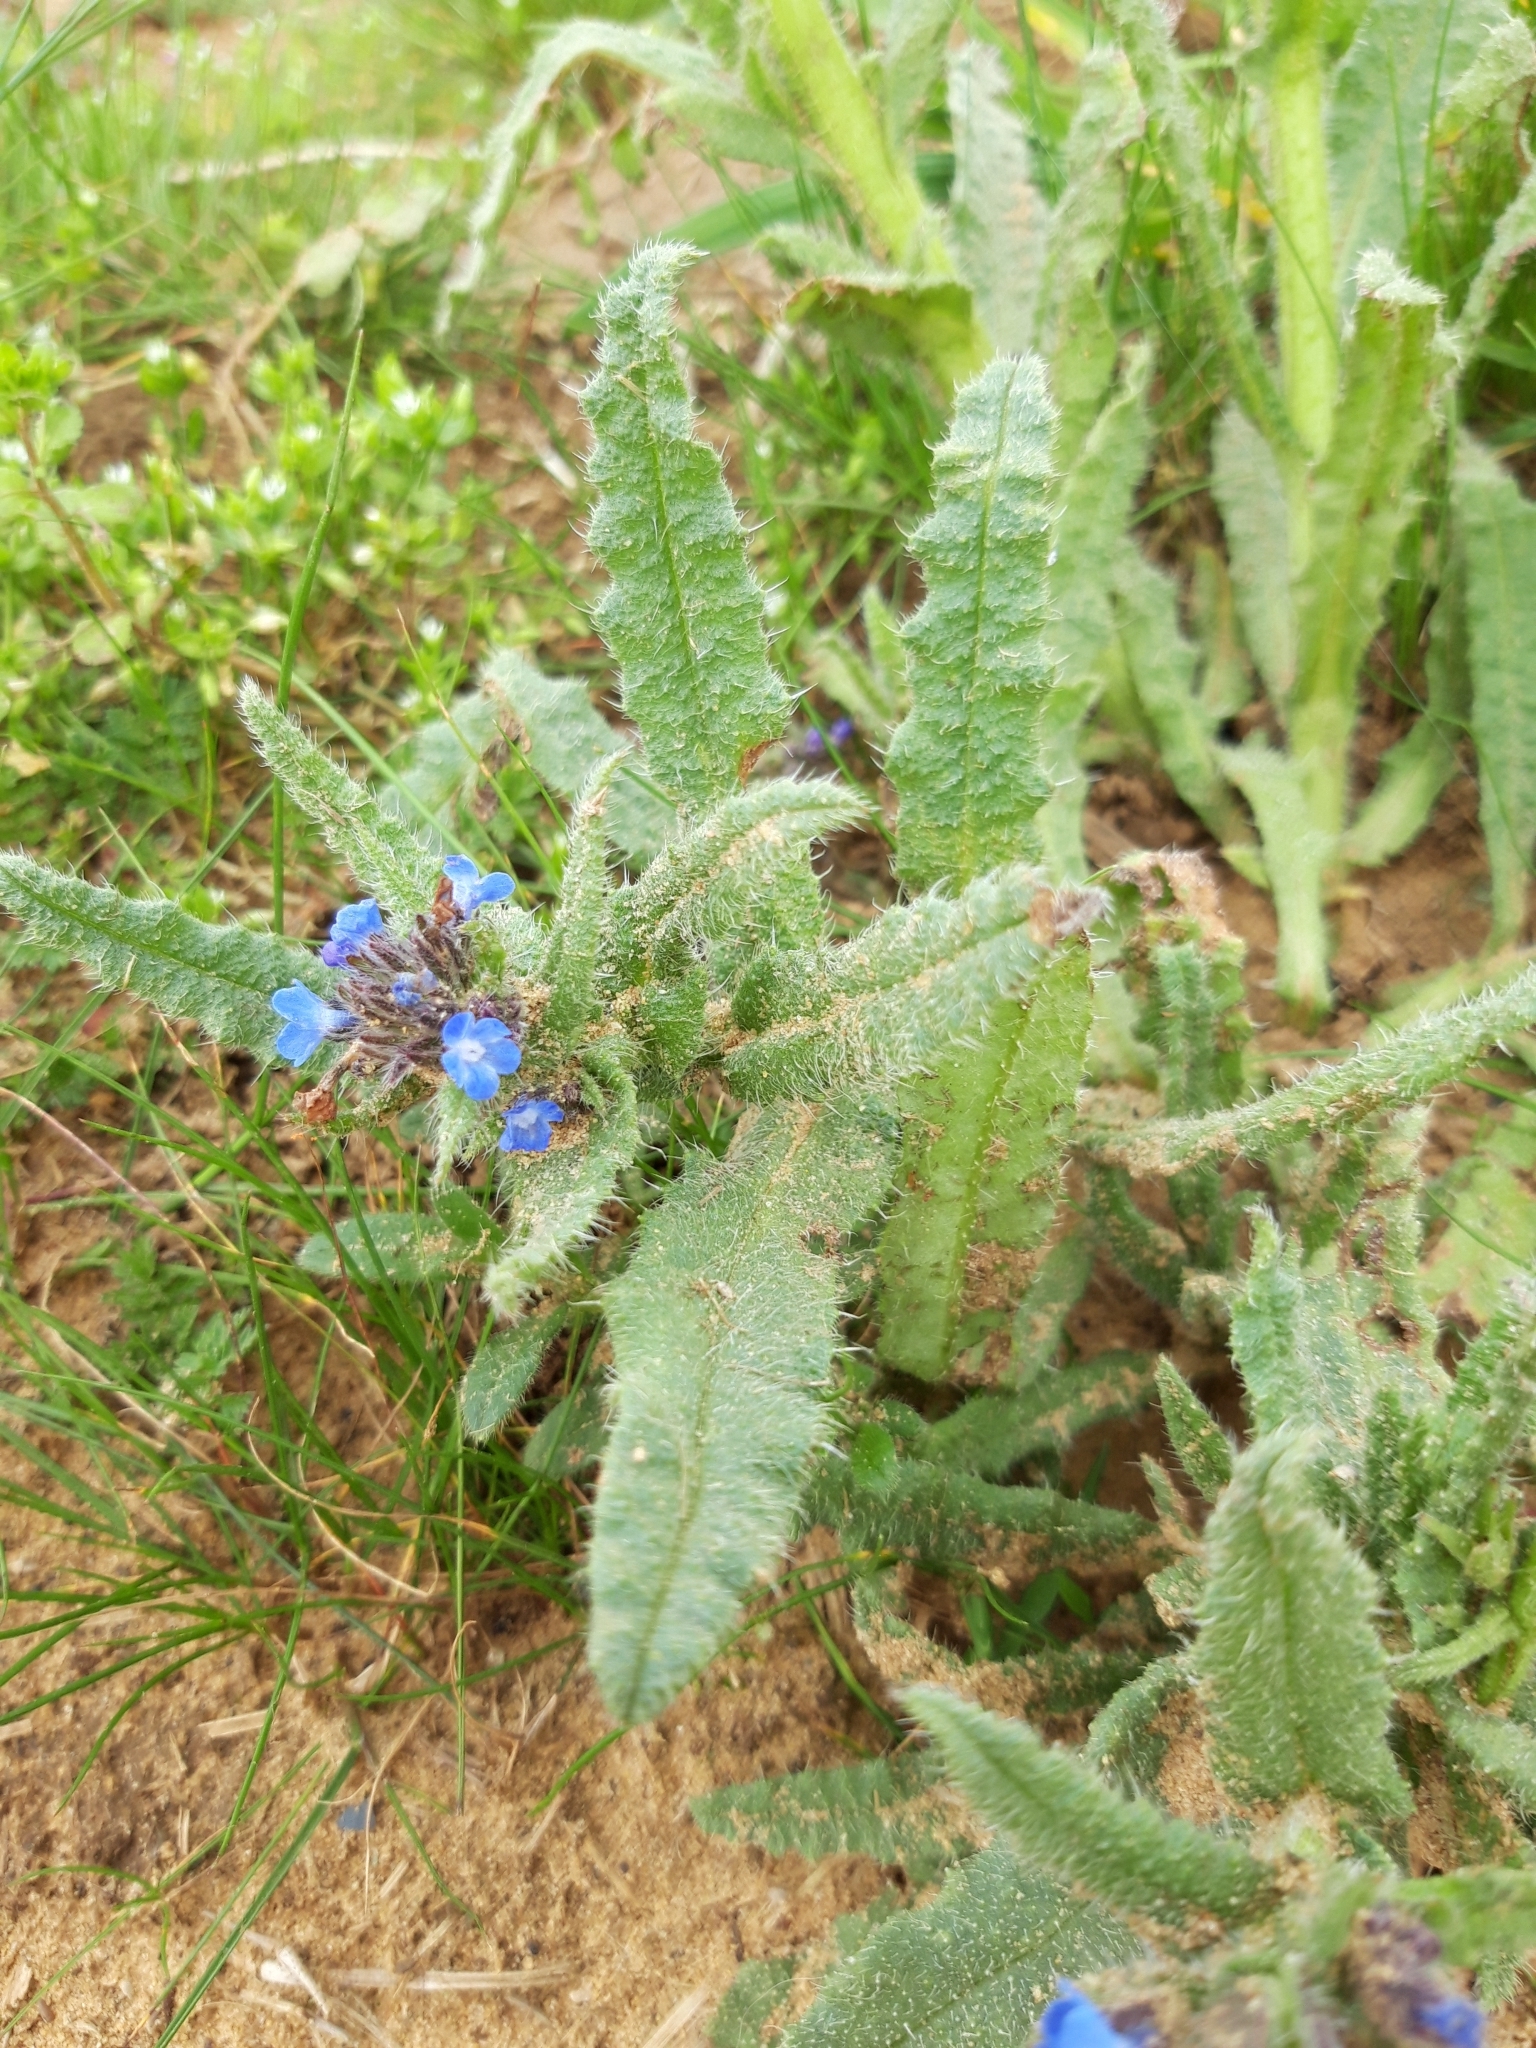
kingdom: Plantae
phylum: Tracheophyta
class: Magnoliopsida
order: Boraginales
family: Boraginaceae
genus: Lycopsis
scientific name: Lycopsis arvensis
